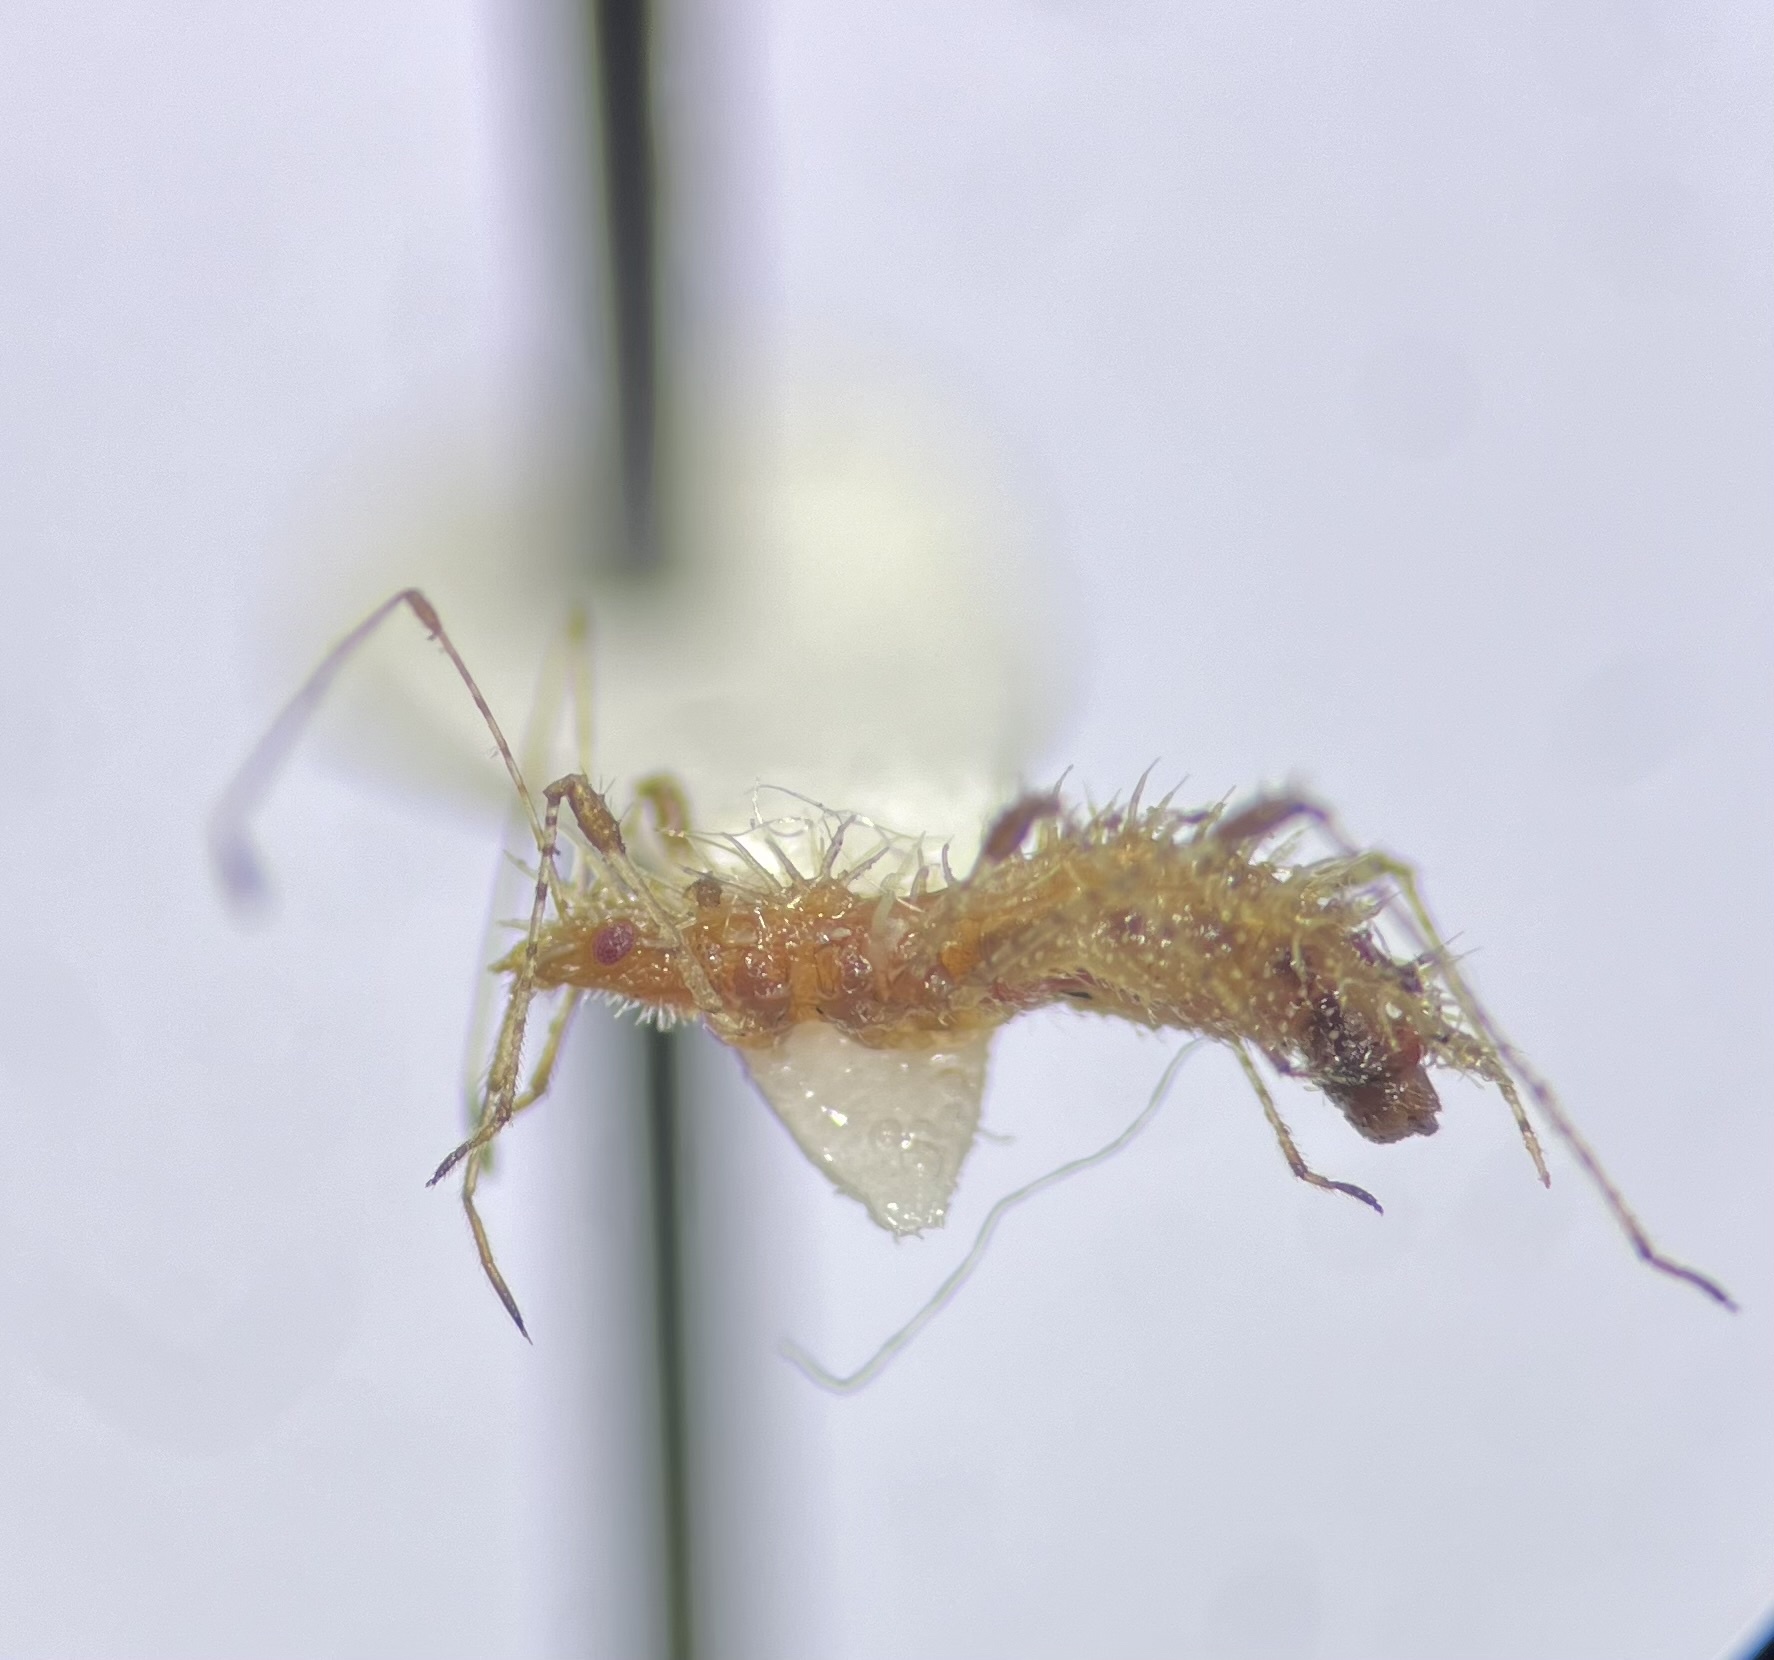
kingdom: Animalia
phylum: Arthropoda
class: Insecta
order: Hemiptera
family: Berytidae
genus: Hoplinus
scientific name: Hoplinus echinatus
